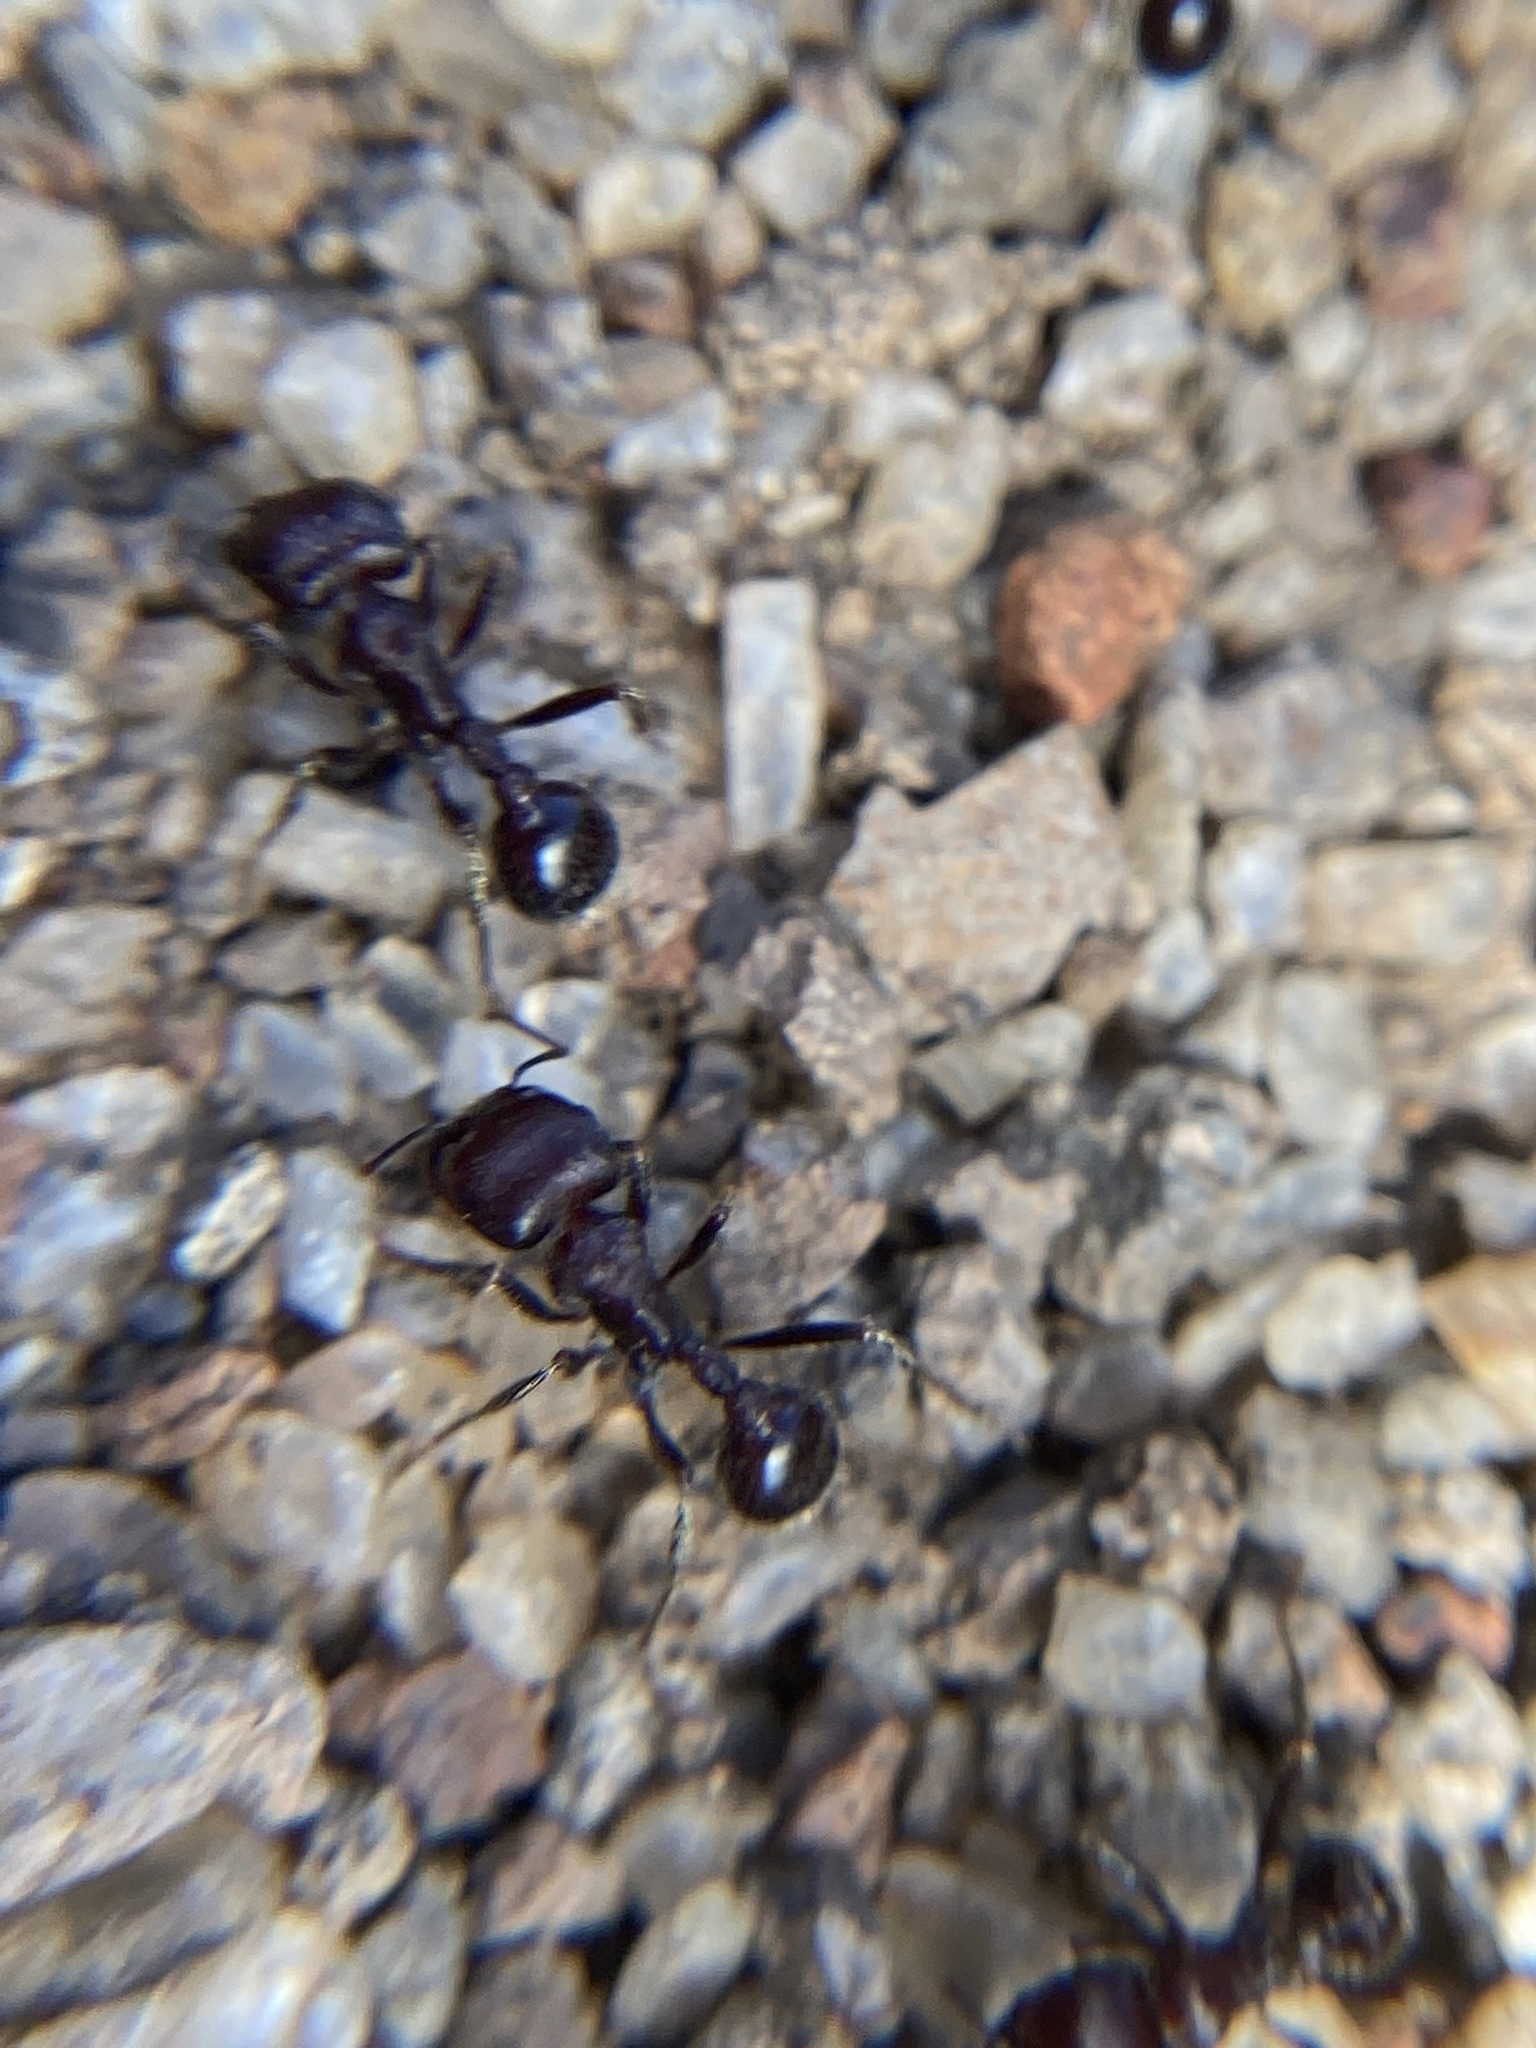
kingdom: Animalia
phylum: Arthropoda
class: Insecta
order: Hymenoptera
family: Formicidae
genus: Pogonomyrmex
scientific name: Pogonomyrmex
